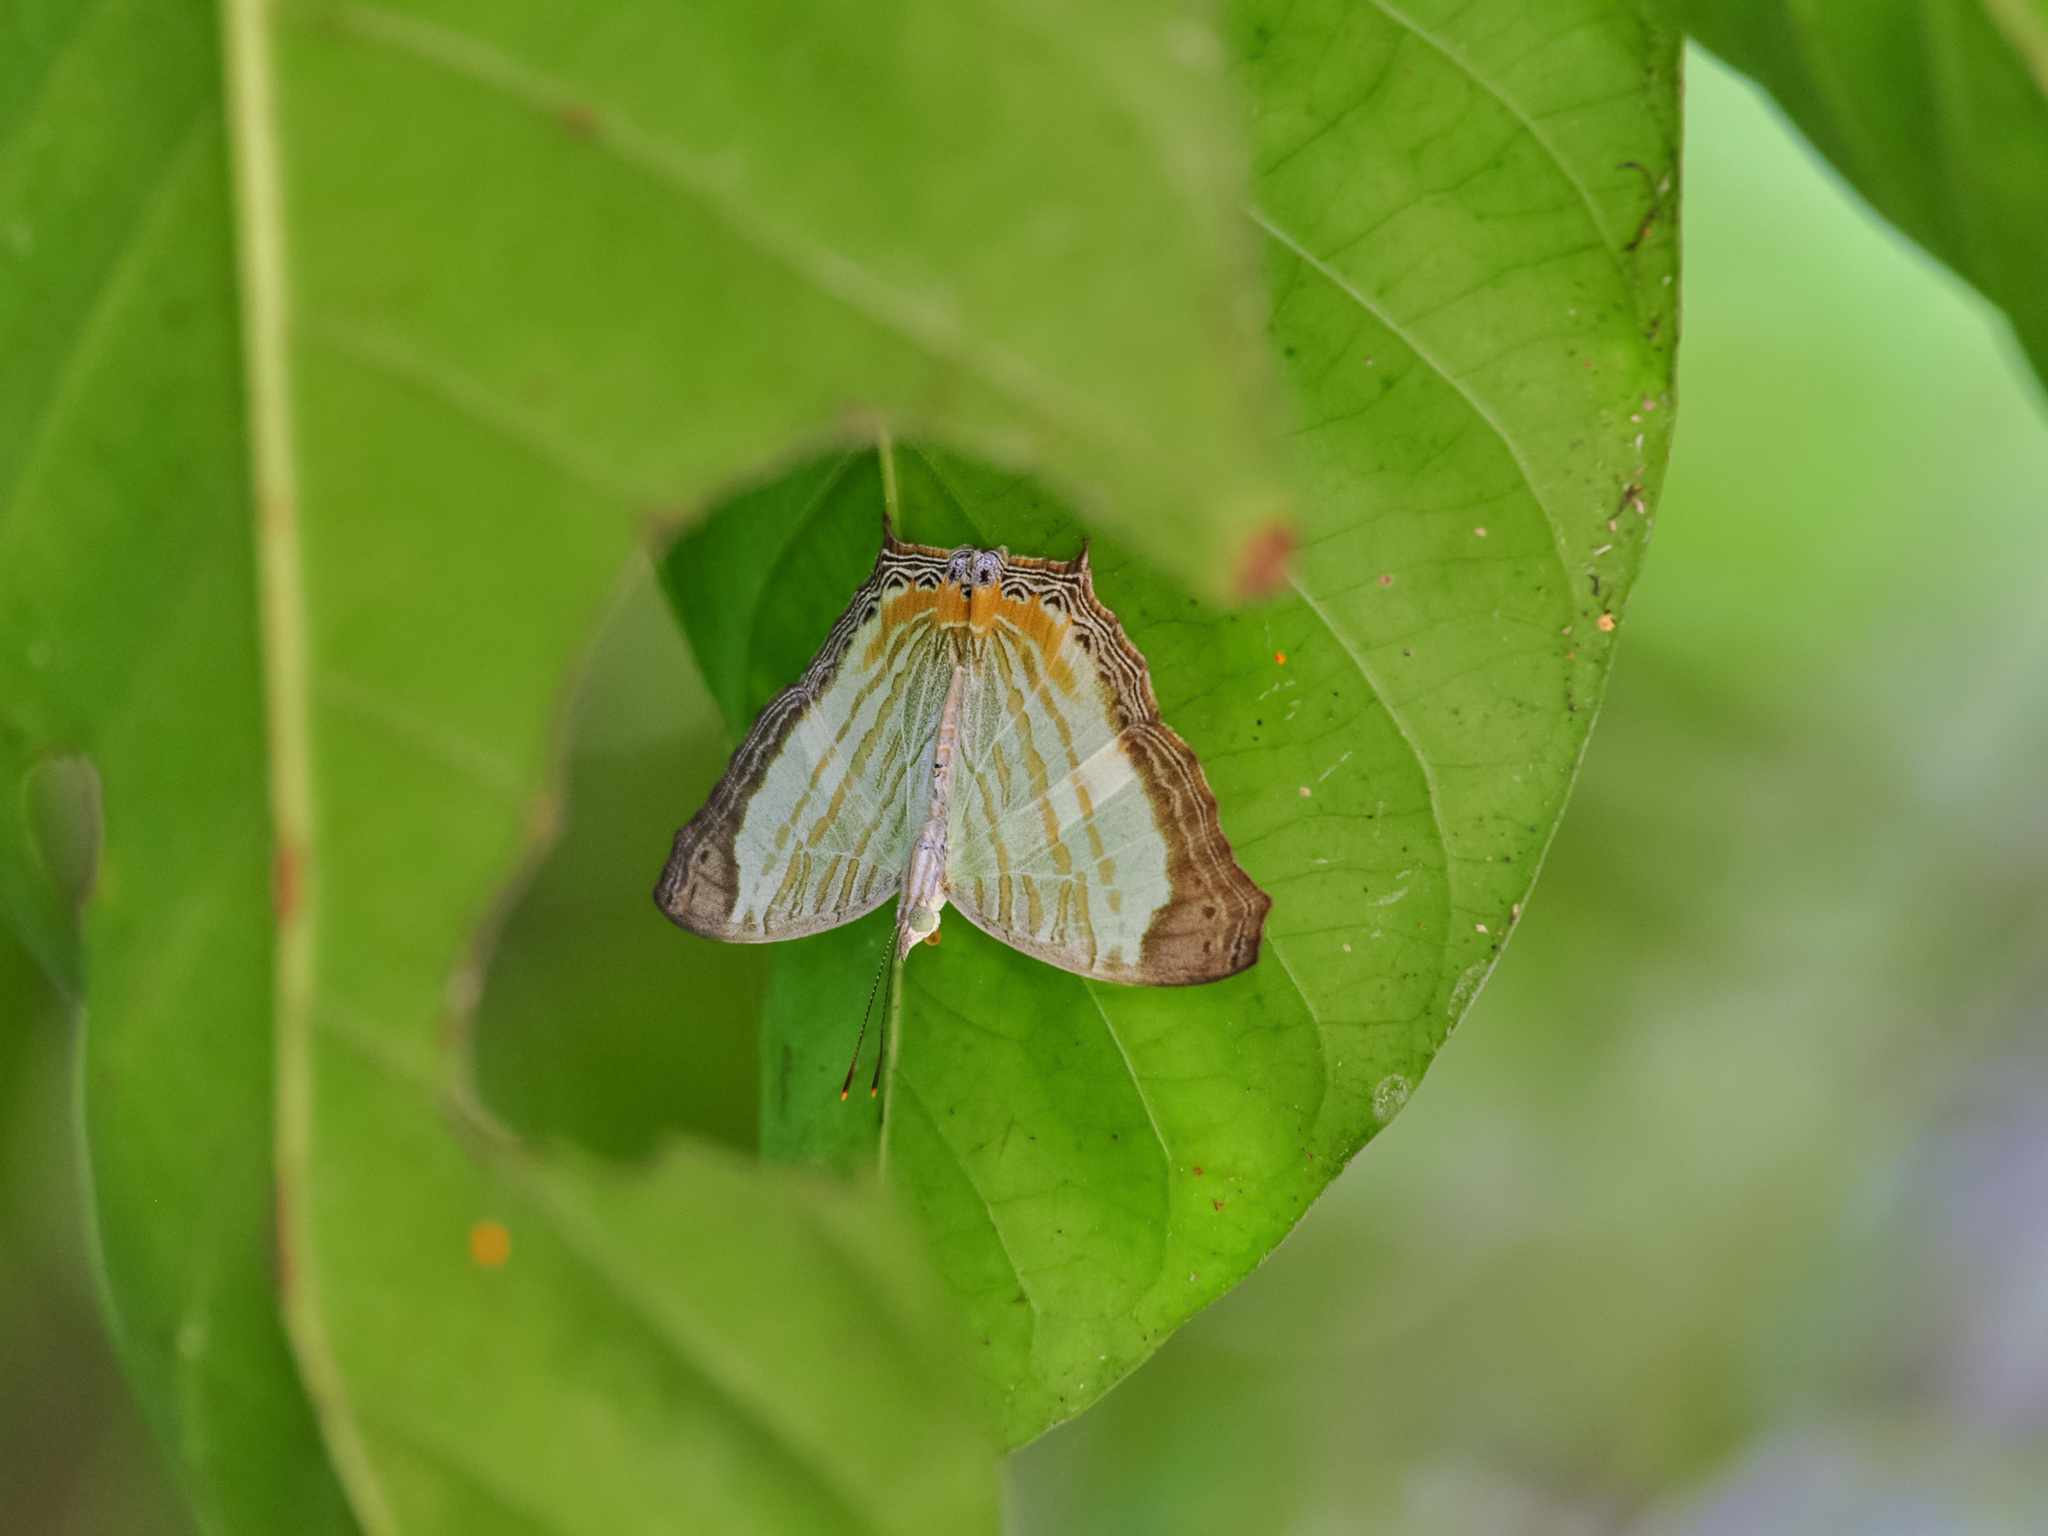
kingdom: Animalia
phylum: Arthropoda
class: Insecta
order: Lepidoptera
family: Nymphalidae
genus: Cyrestis
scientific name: Cyrestis themire
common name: Little mapwing
